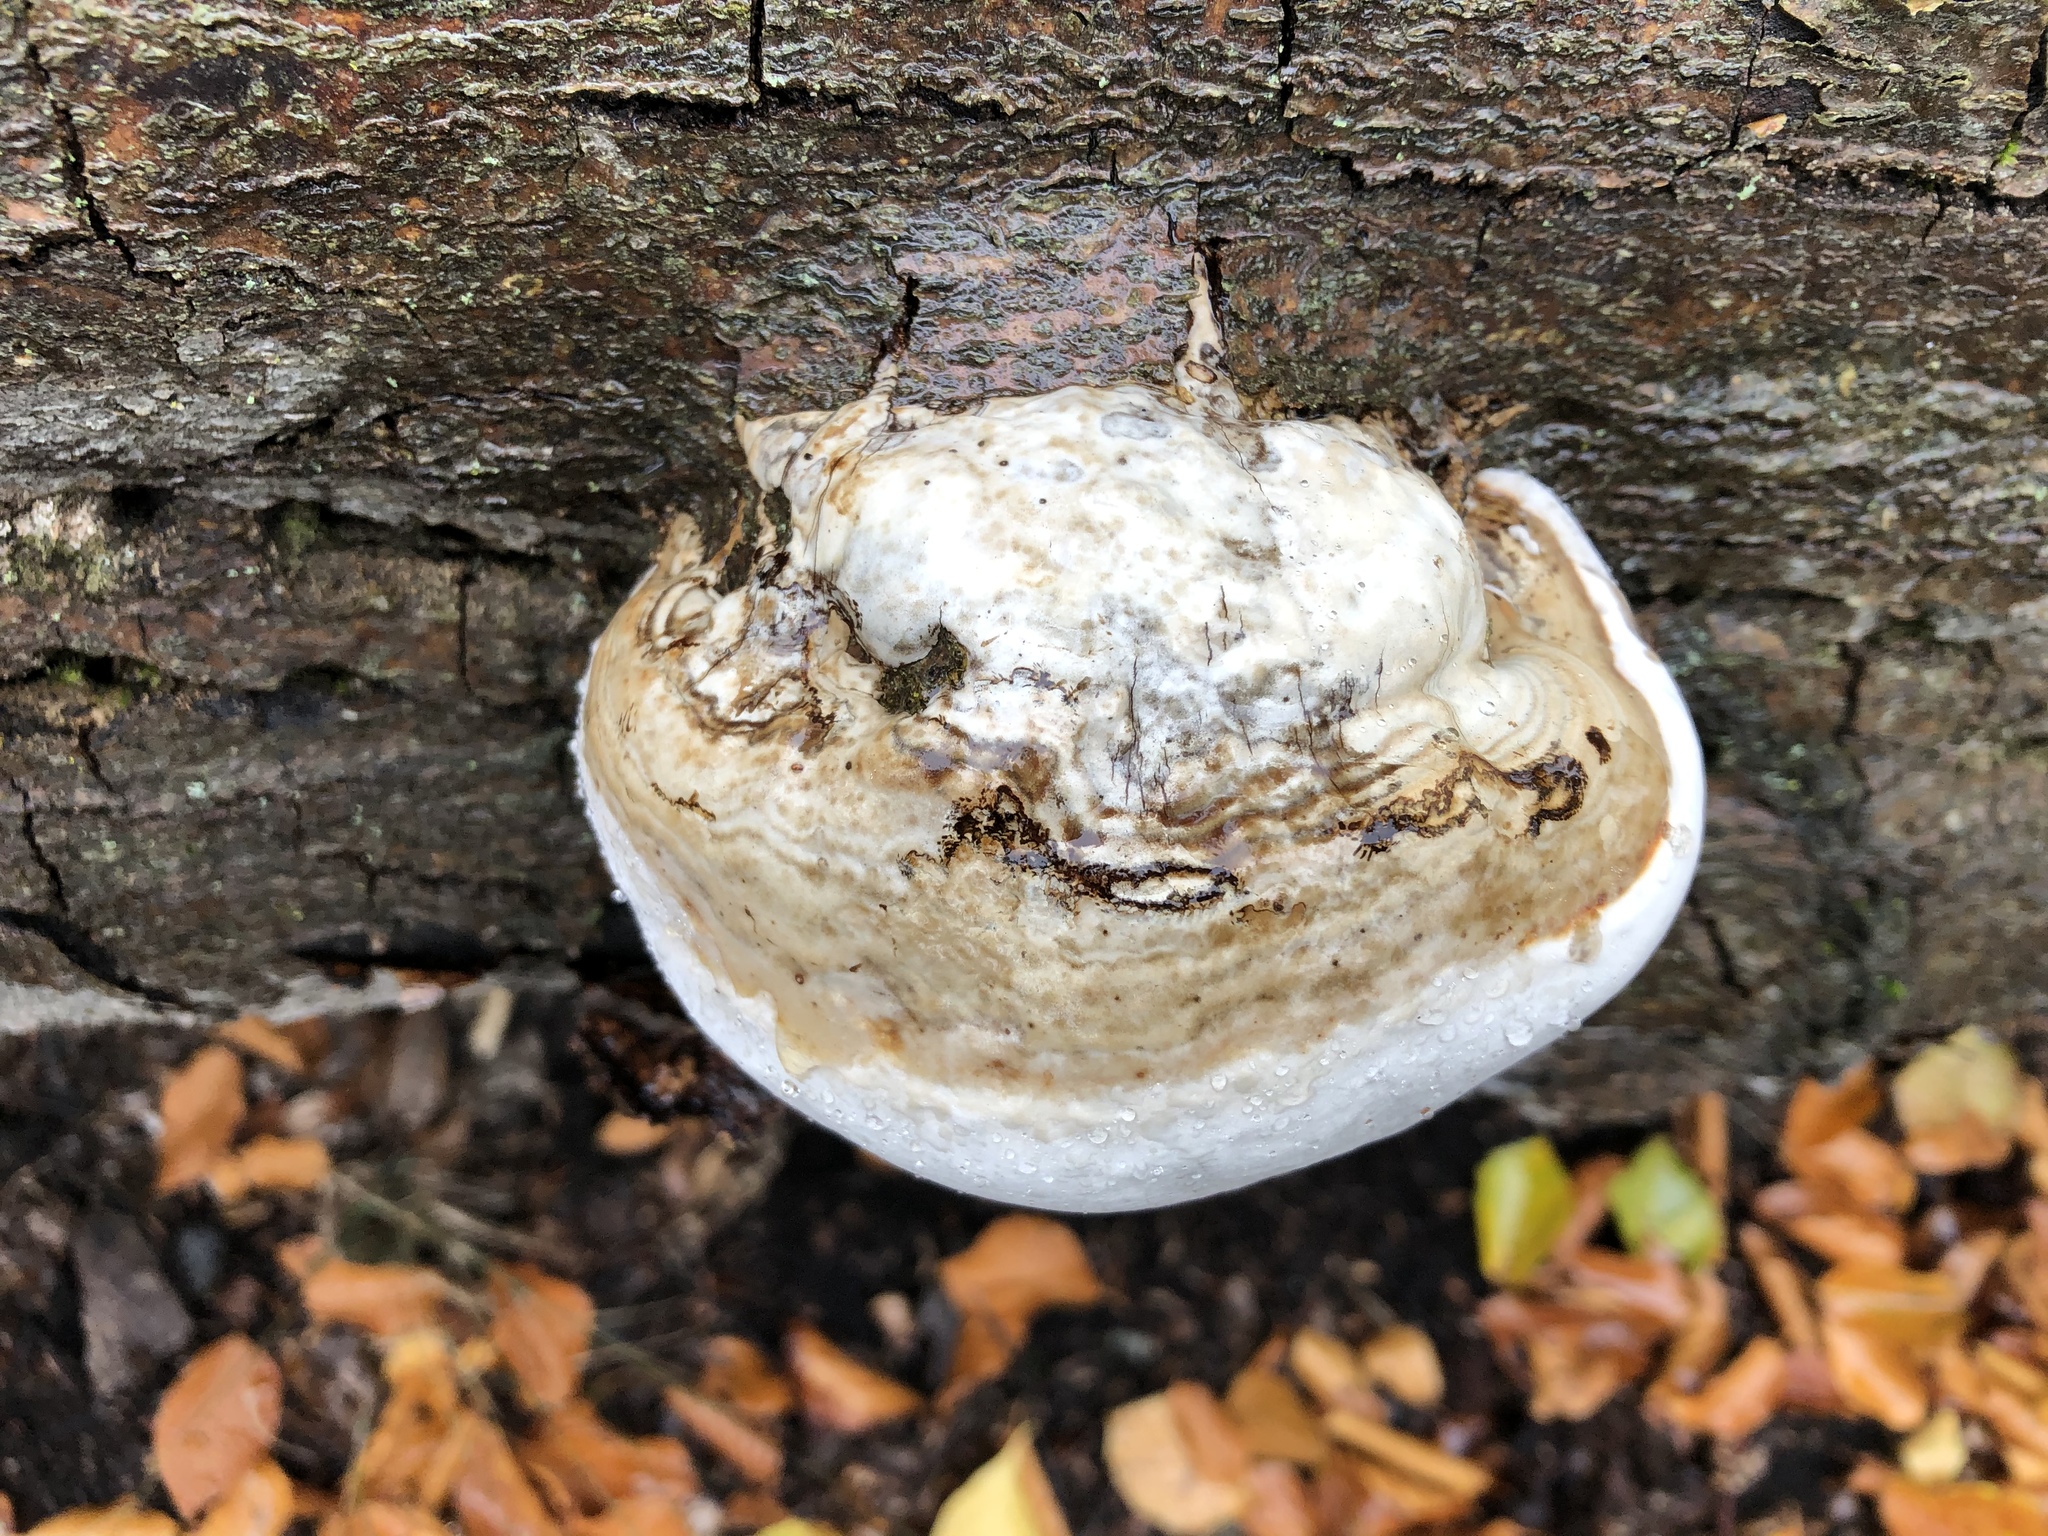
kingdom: Fungi
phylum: Basidiomycota
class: Agaricomycetes
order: Polyporales
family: Polyporaceae
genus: Fomes
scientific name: Fomes fomentarius
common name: Hoof fungus
